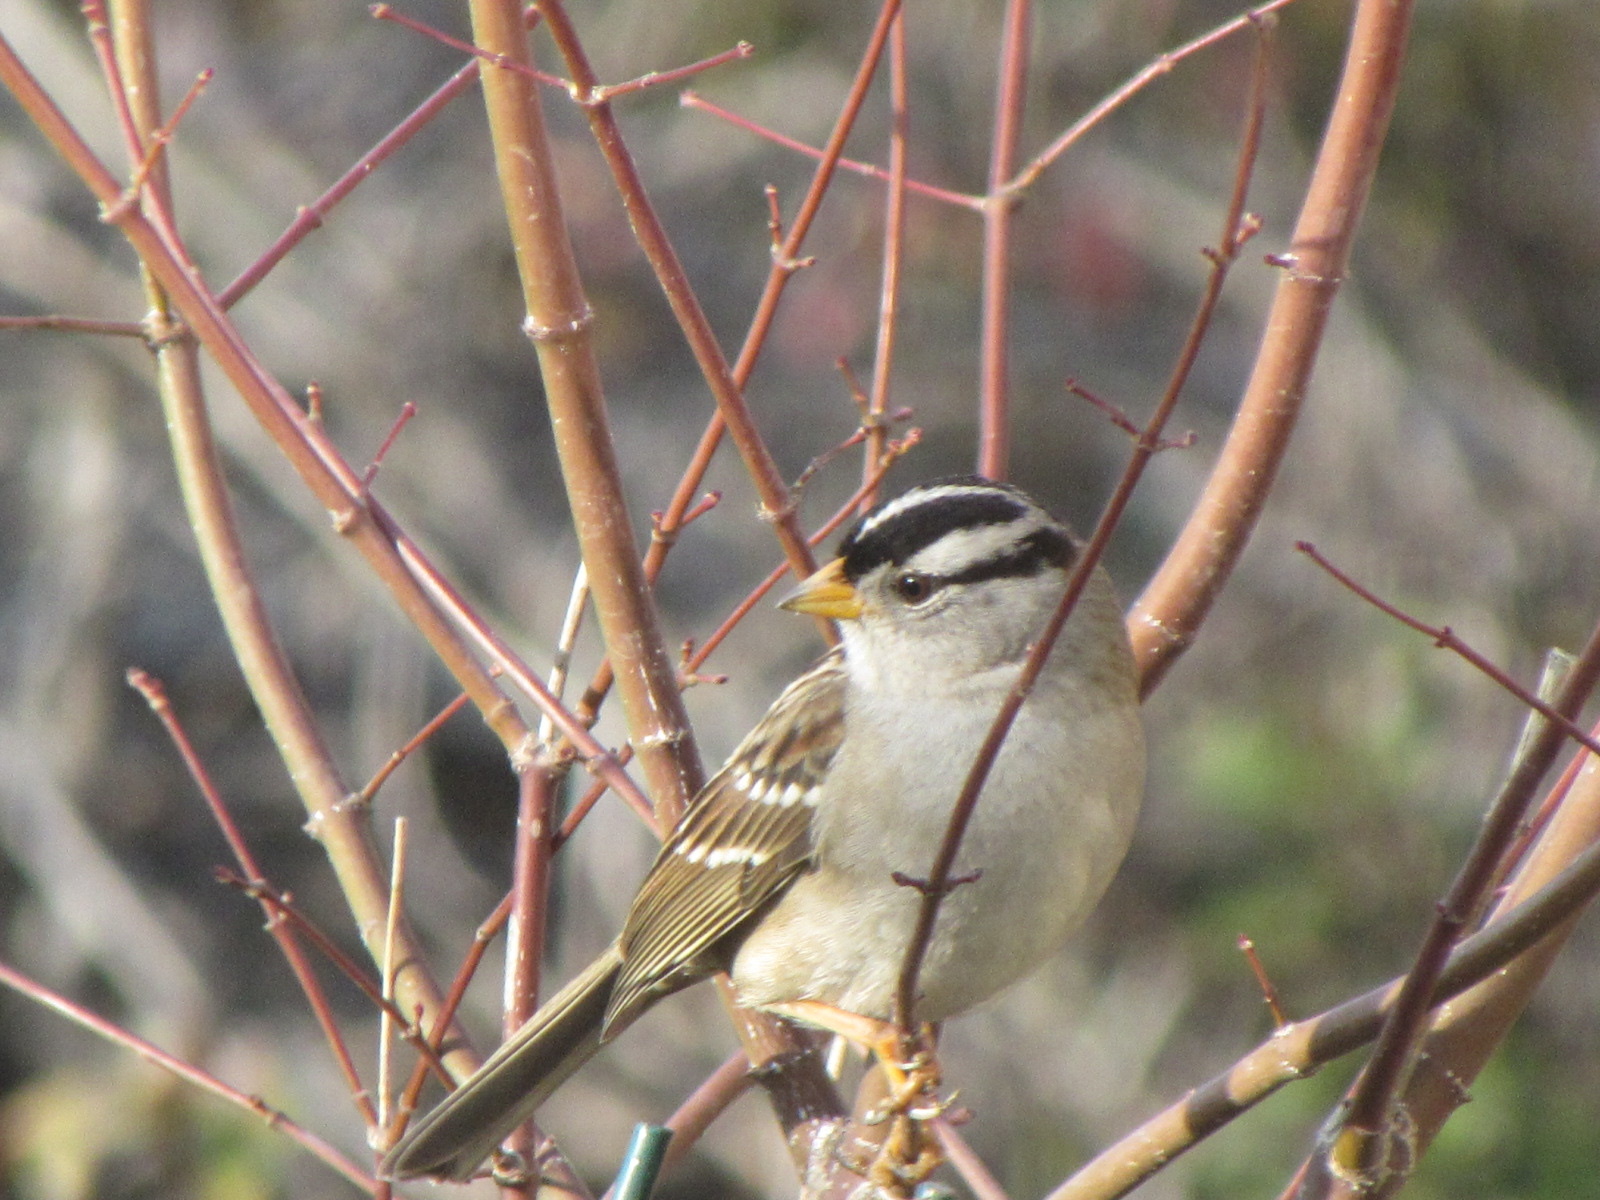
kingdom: Animalia
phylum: Chordata
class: Aves
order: Passeriformes
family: Passerellidae
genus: Zonotrichia
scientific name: Zonotrichia leucophrys
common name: White-crowned sparrow
